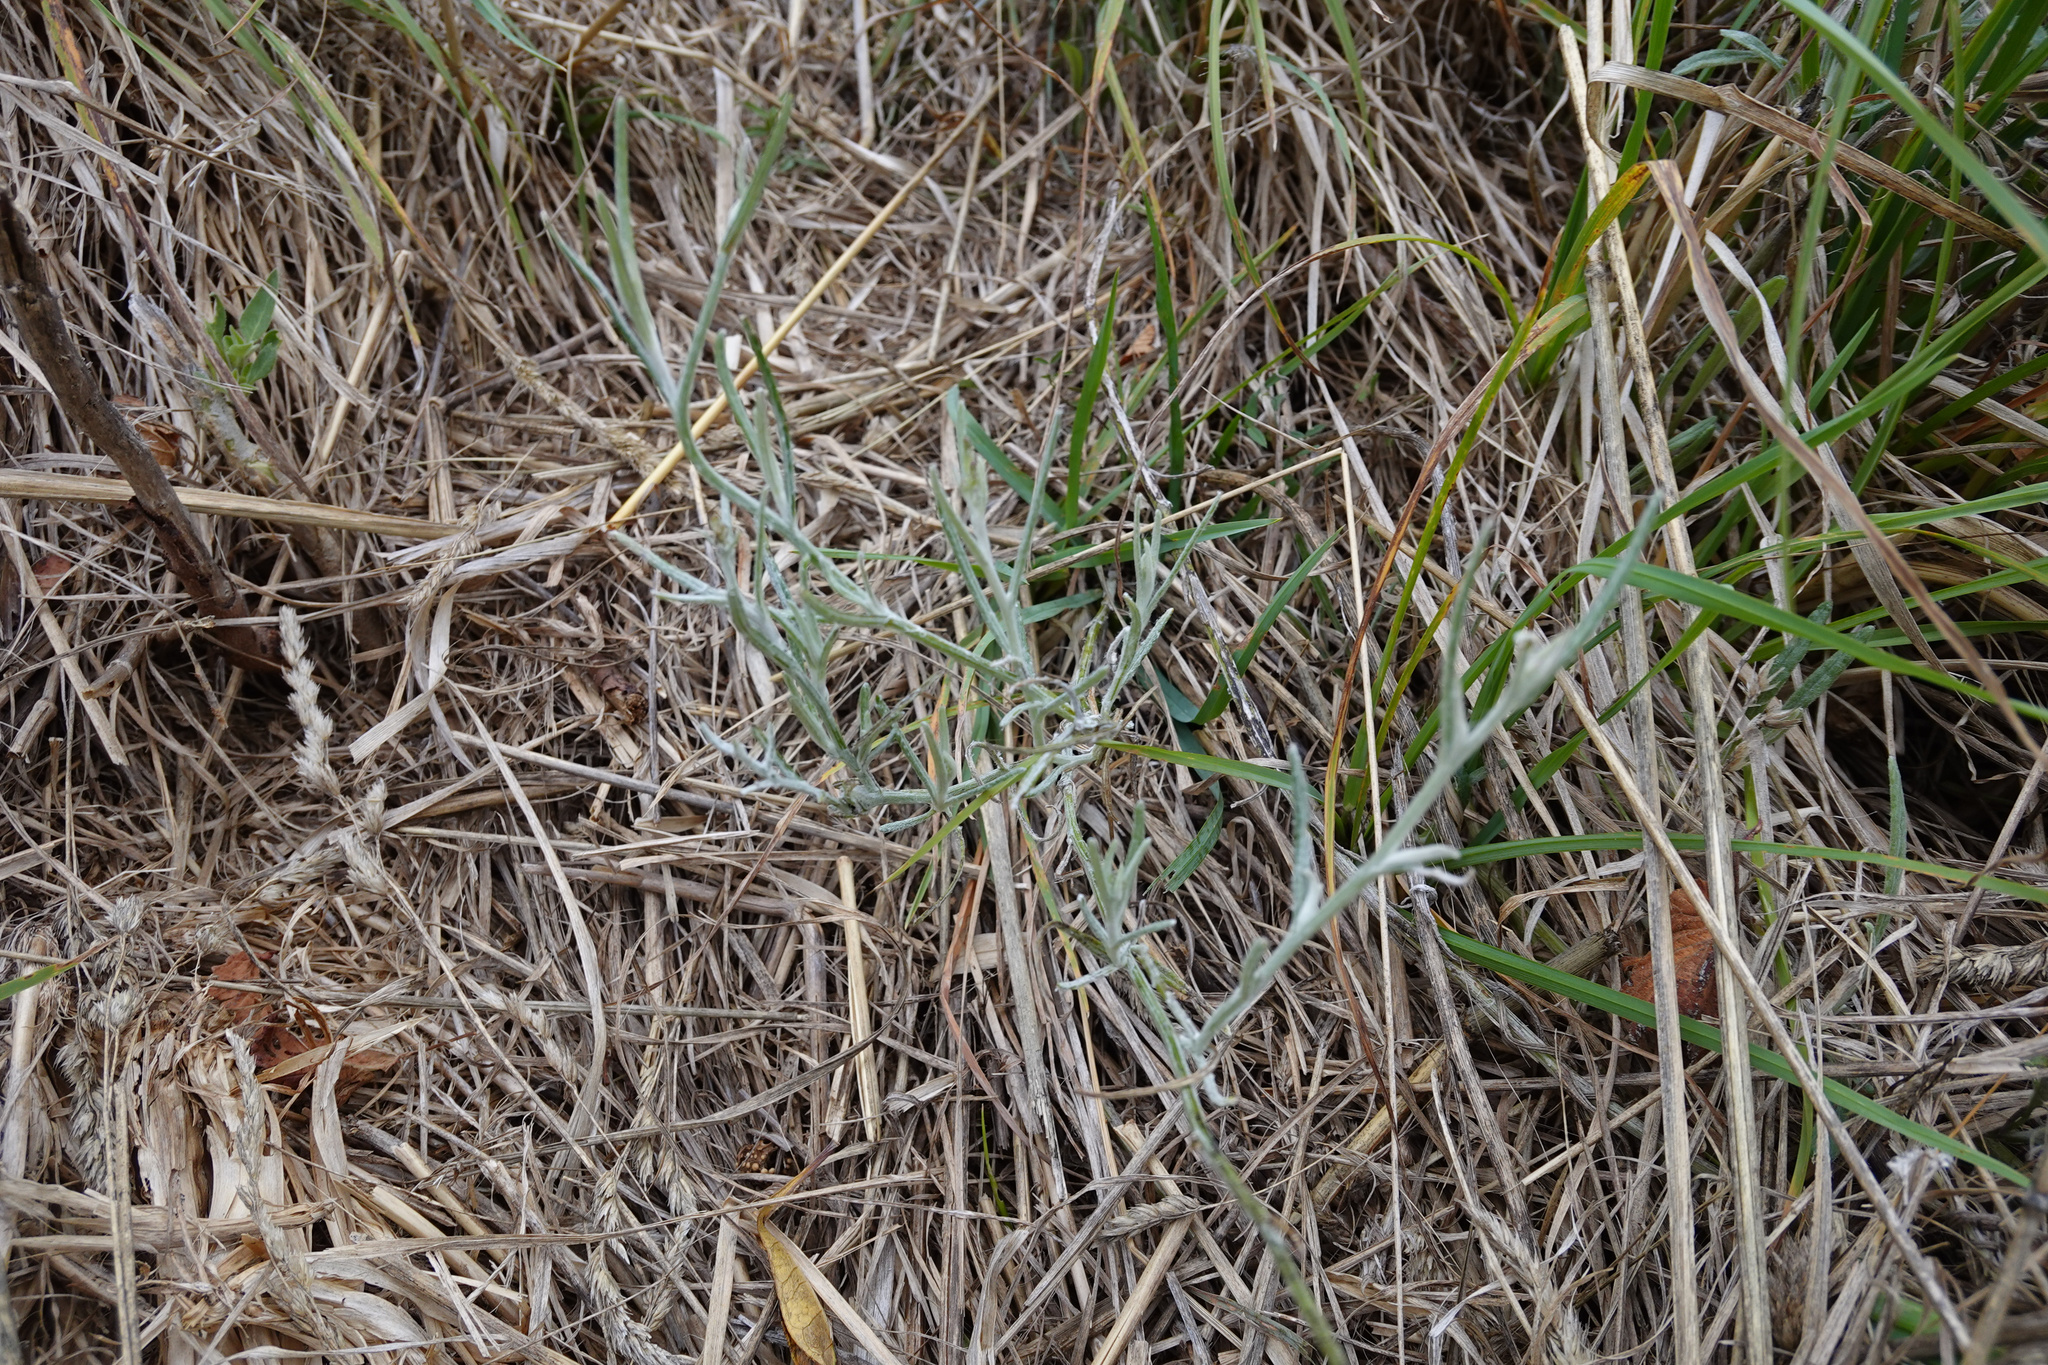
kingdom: Plantae
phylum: Tracheophyta
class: Magnoliopsida
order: Asterales
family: Asteraceae
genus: Senecio
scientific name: Senecio quadridentatus
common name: Cotton fireweed
